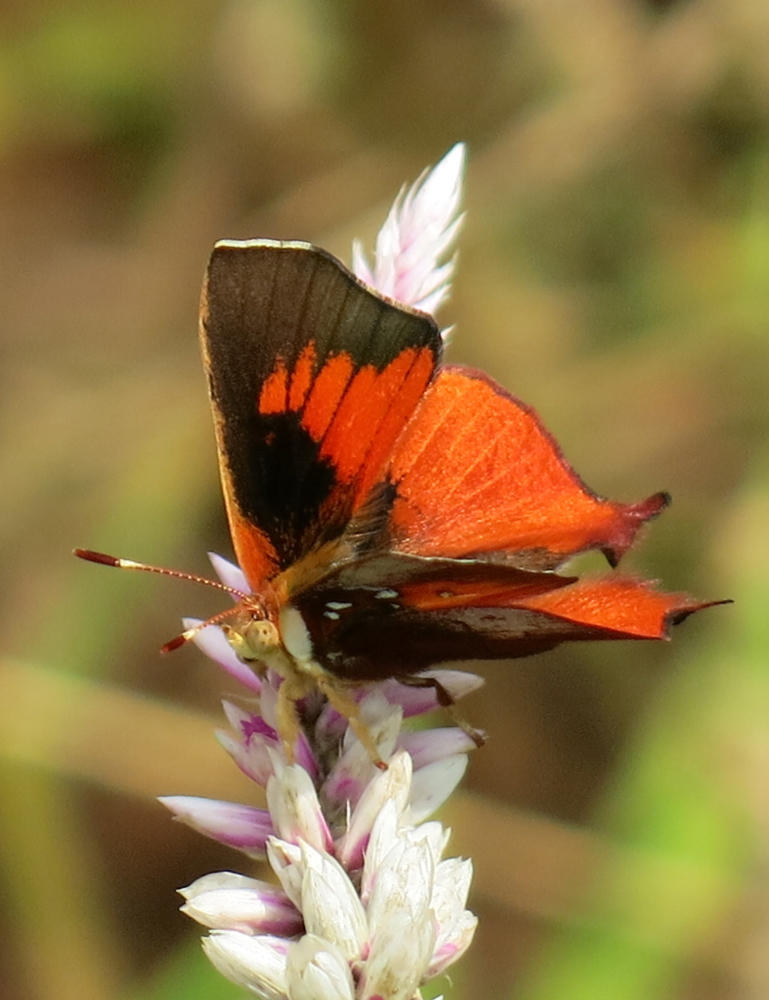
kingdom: Animalia
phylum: Arthropoda
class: Insecta
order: Lepidoptera
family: Lycaenidae
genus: Axiocerses
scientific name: Axiocerses amanga
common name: Bush scarlet
